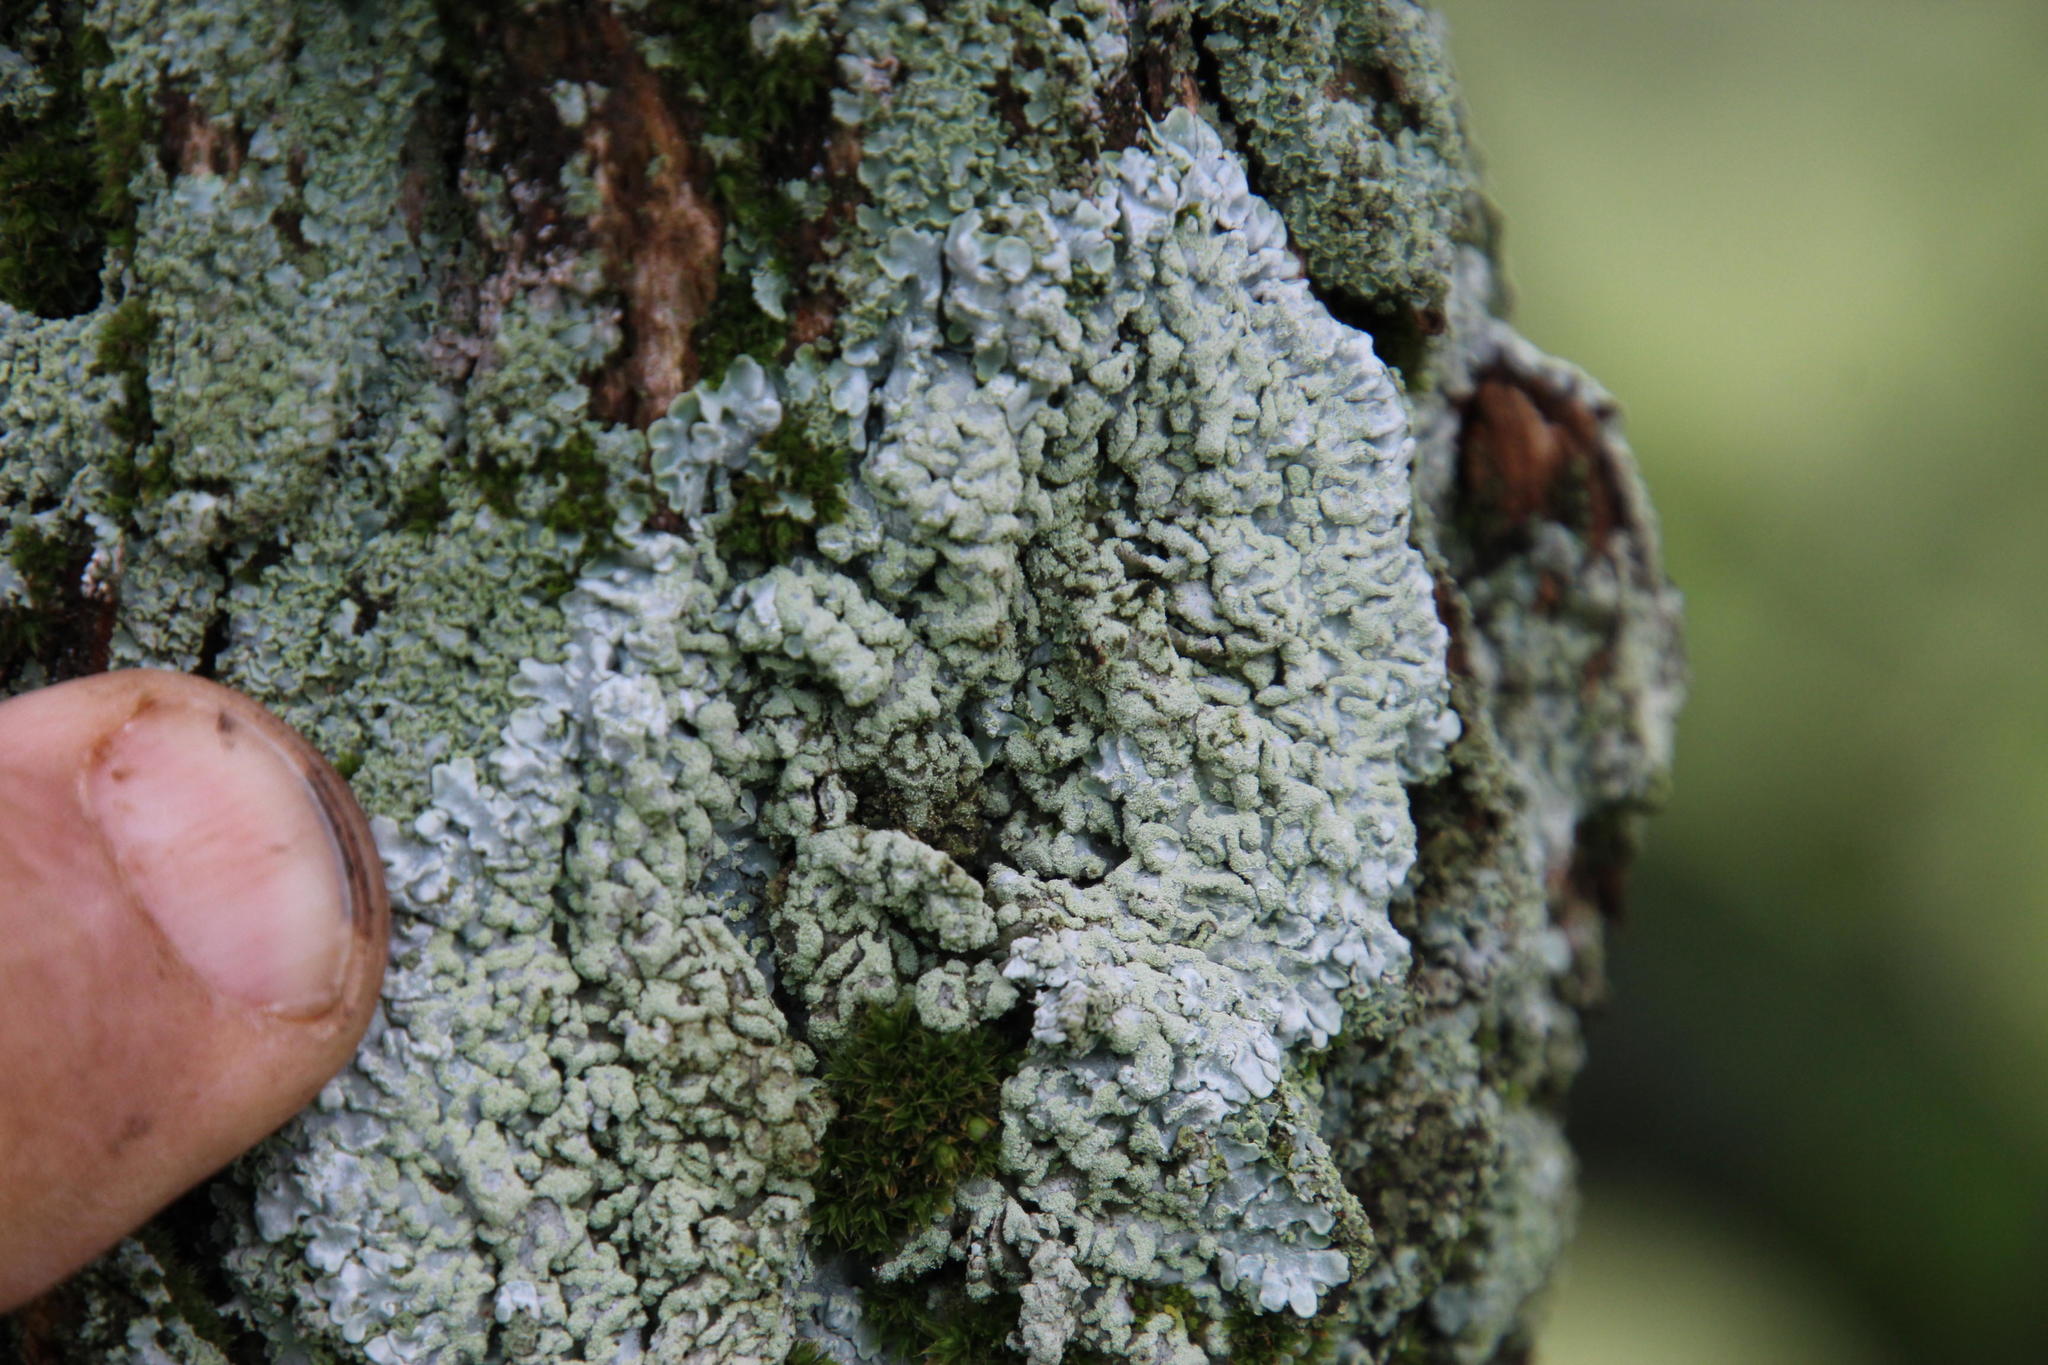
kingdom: Fungi
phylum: Ascomycota
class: Lecanoromycetes
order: Caliciales
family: Physciaceae
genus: Poeltonia
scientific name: Poeltonia grisea
